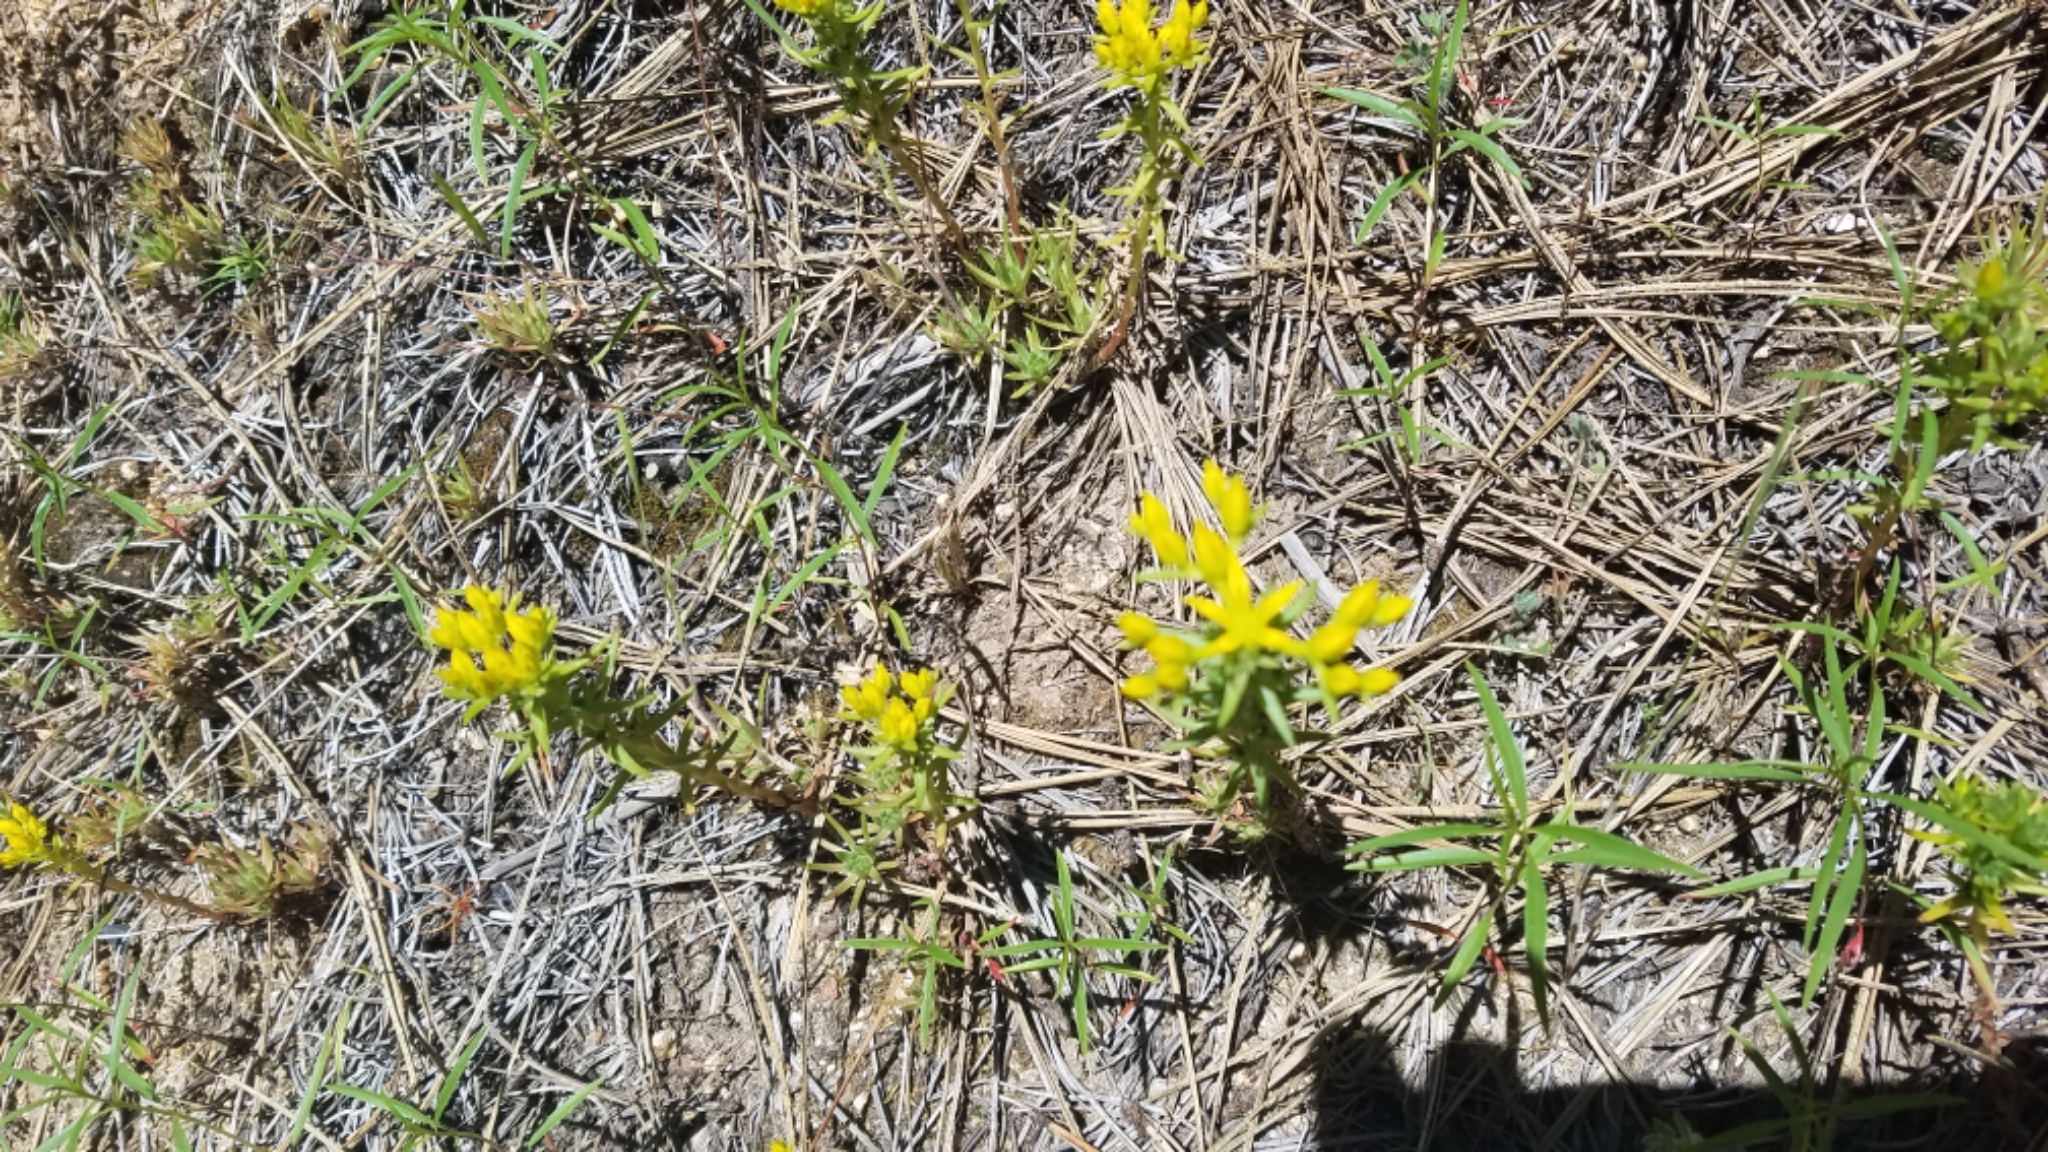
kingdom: Plantae
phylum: Tracheophyta
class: Magnoliopsida
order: Saxifragales
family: Crassulaceae
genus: Sedum
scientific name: Sedum stenopetalum
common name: Narrow-petaled stonecrop
